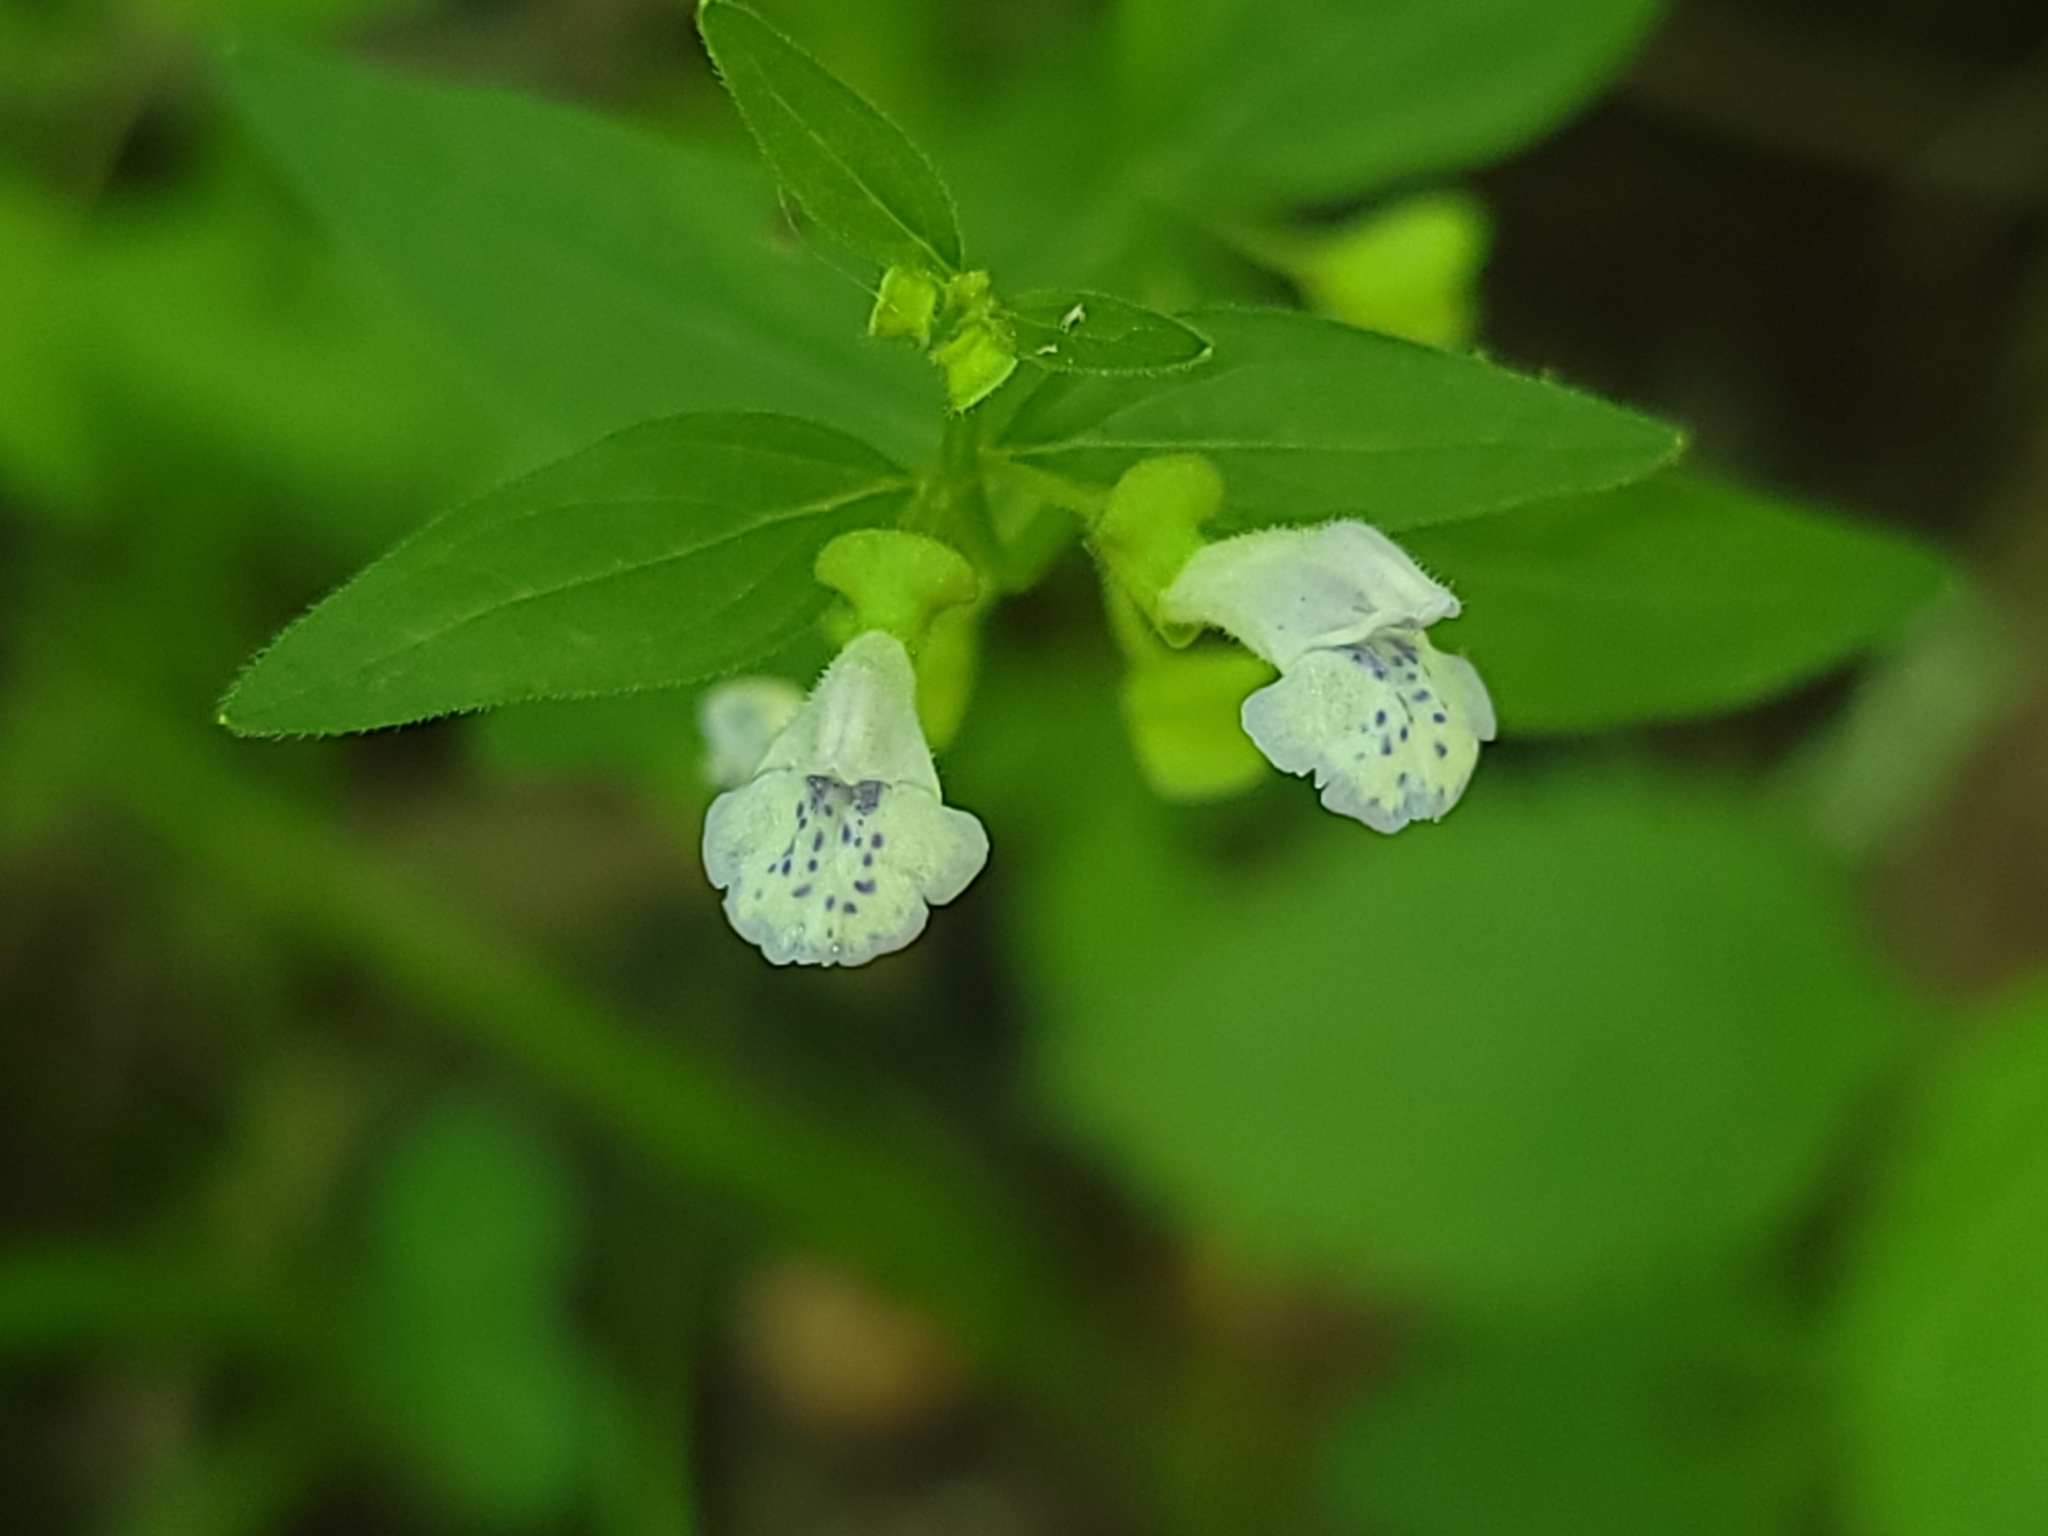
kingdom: Plantae
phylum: Tracheophyta
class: Magnoliopsida
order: Lamiales
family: Lamiaceae
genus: Scutellaria
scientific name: Scutellaria nervosa
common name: Bottomland skullcap
